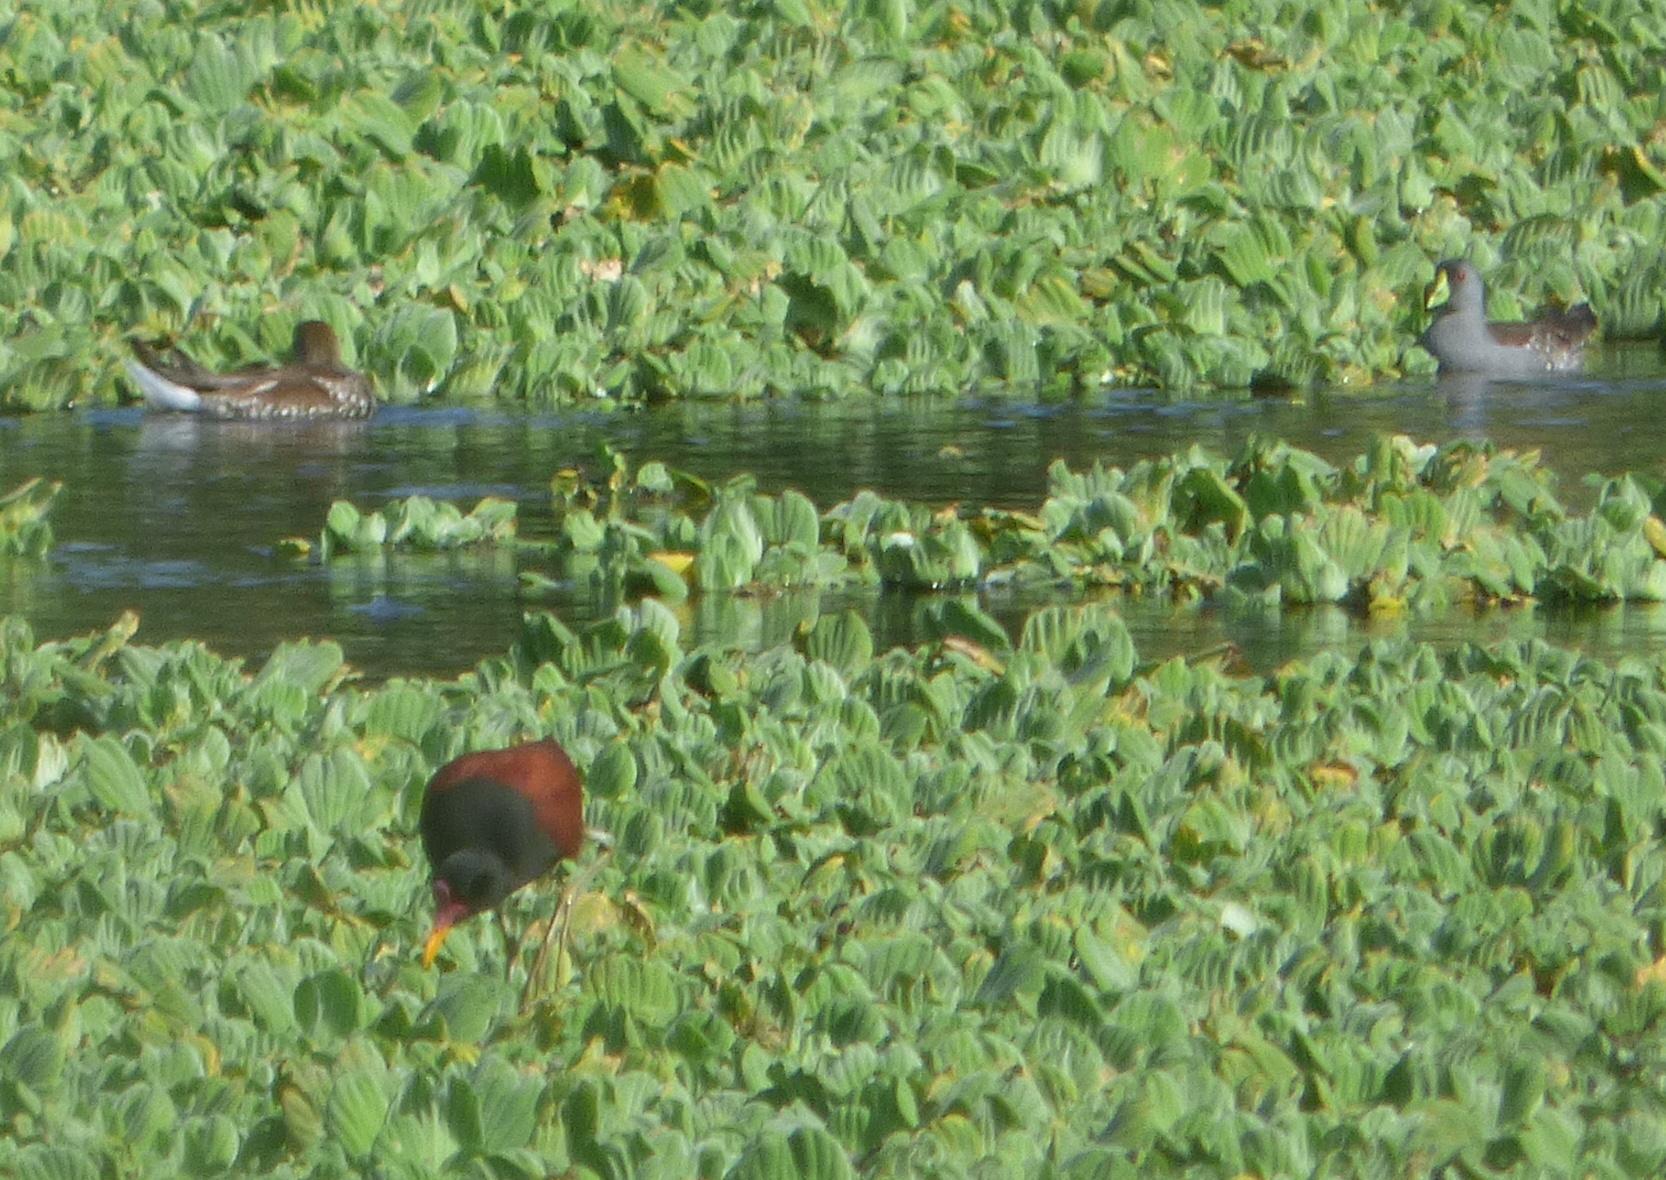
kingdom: Animalia
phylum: Chordata
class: Aves
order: Gruiformes
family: Rallidae
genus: Gallinula
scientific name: Gallinula melanops
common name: Spot-flanked gallinule
